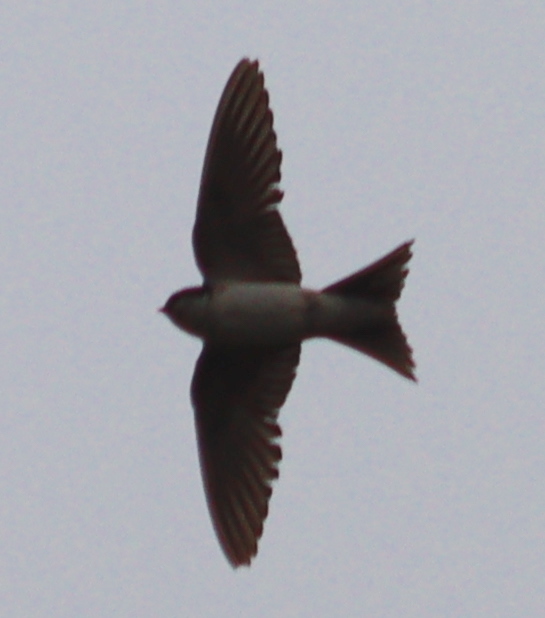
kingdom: Animalia
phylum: Chordata
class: Aves
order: Passeriformes
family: Hirundinidae
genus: Delichon
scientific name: Delichon urbicum
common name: Common house martin
